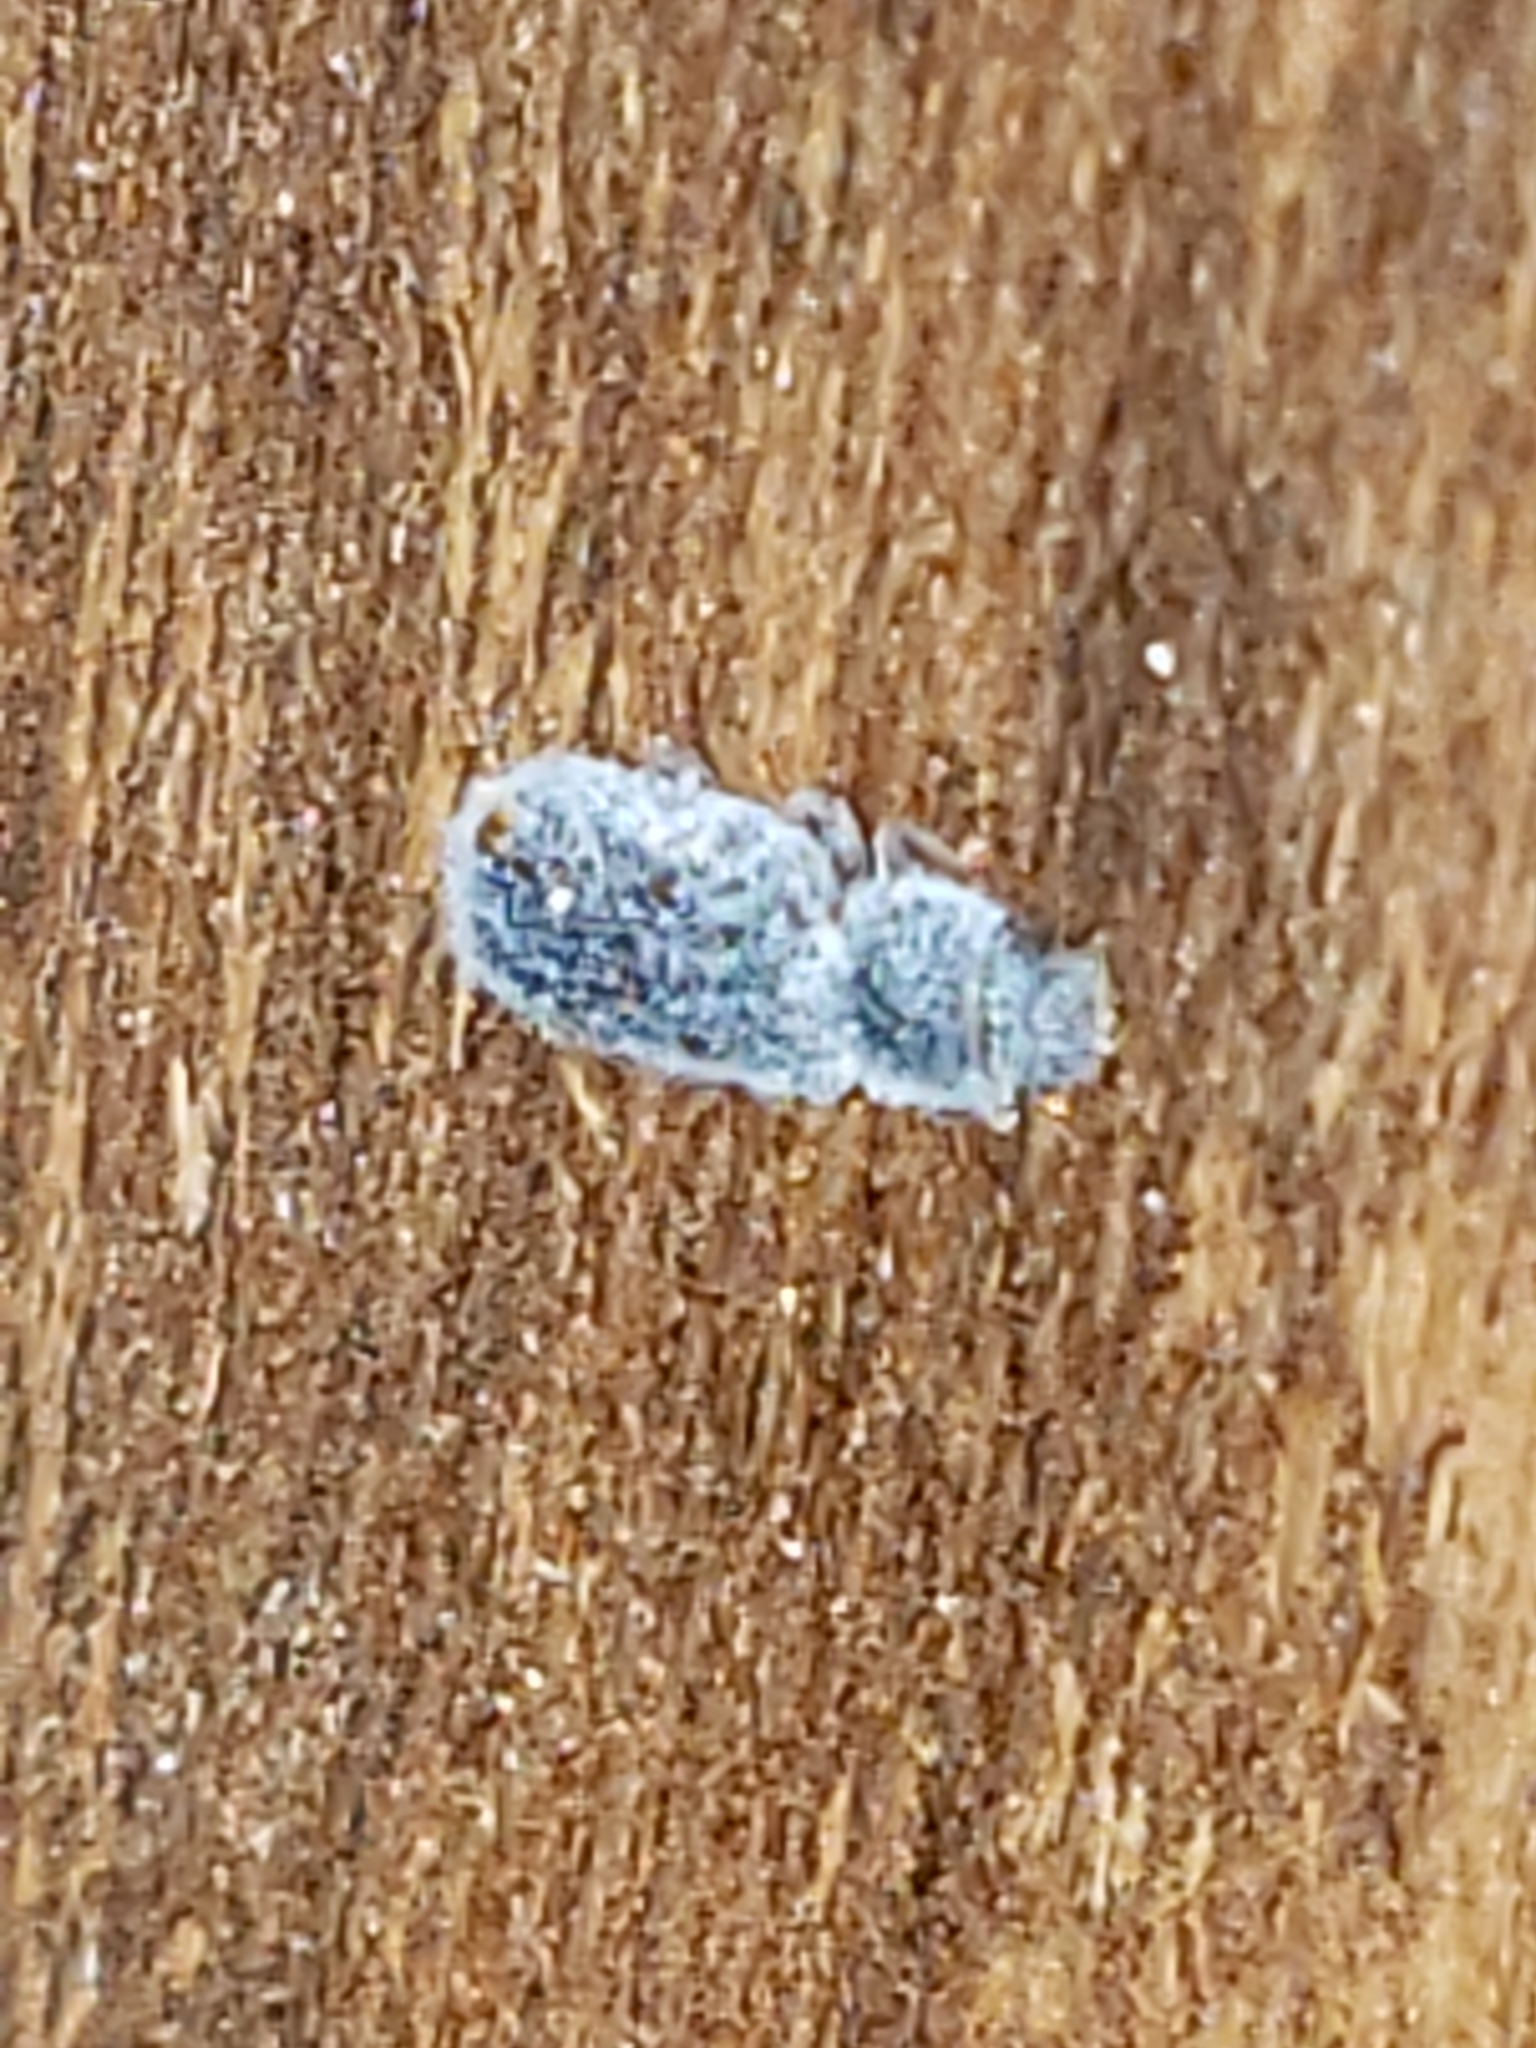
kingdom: Animalia
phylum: Arthropoda
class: Insecta
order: Coleoptera
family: Zopheridae
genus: Endeitoma
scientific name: Endeitoma granulata
